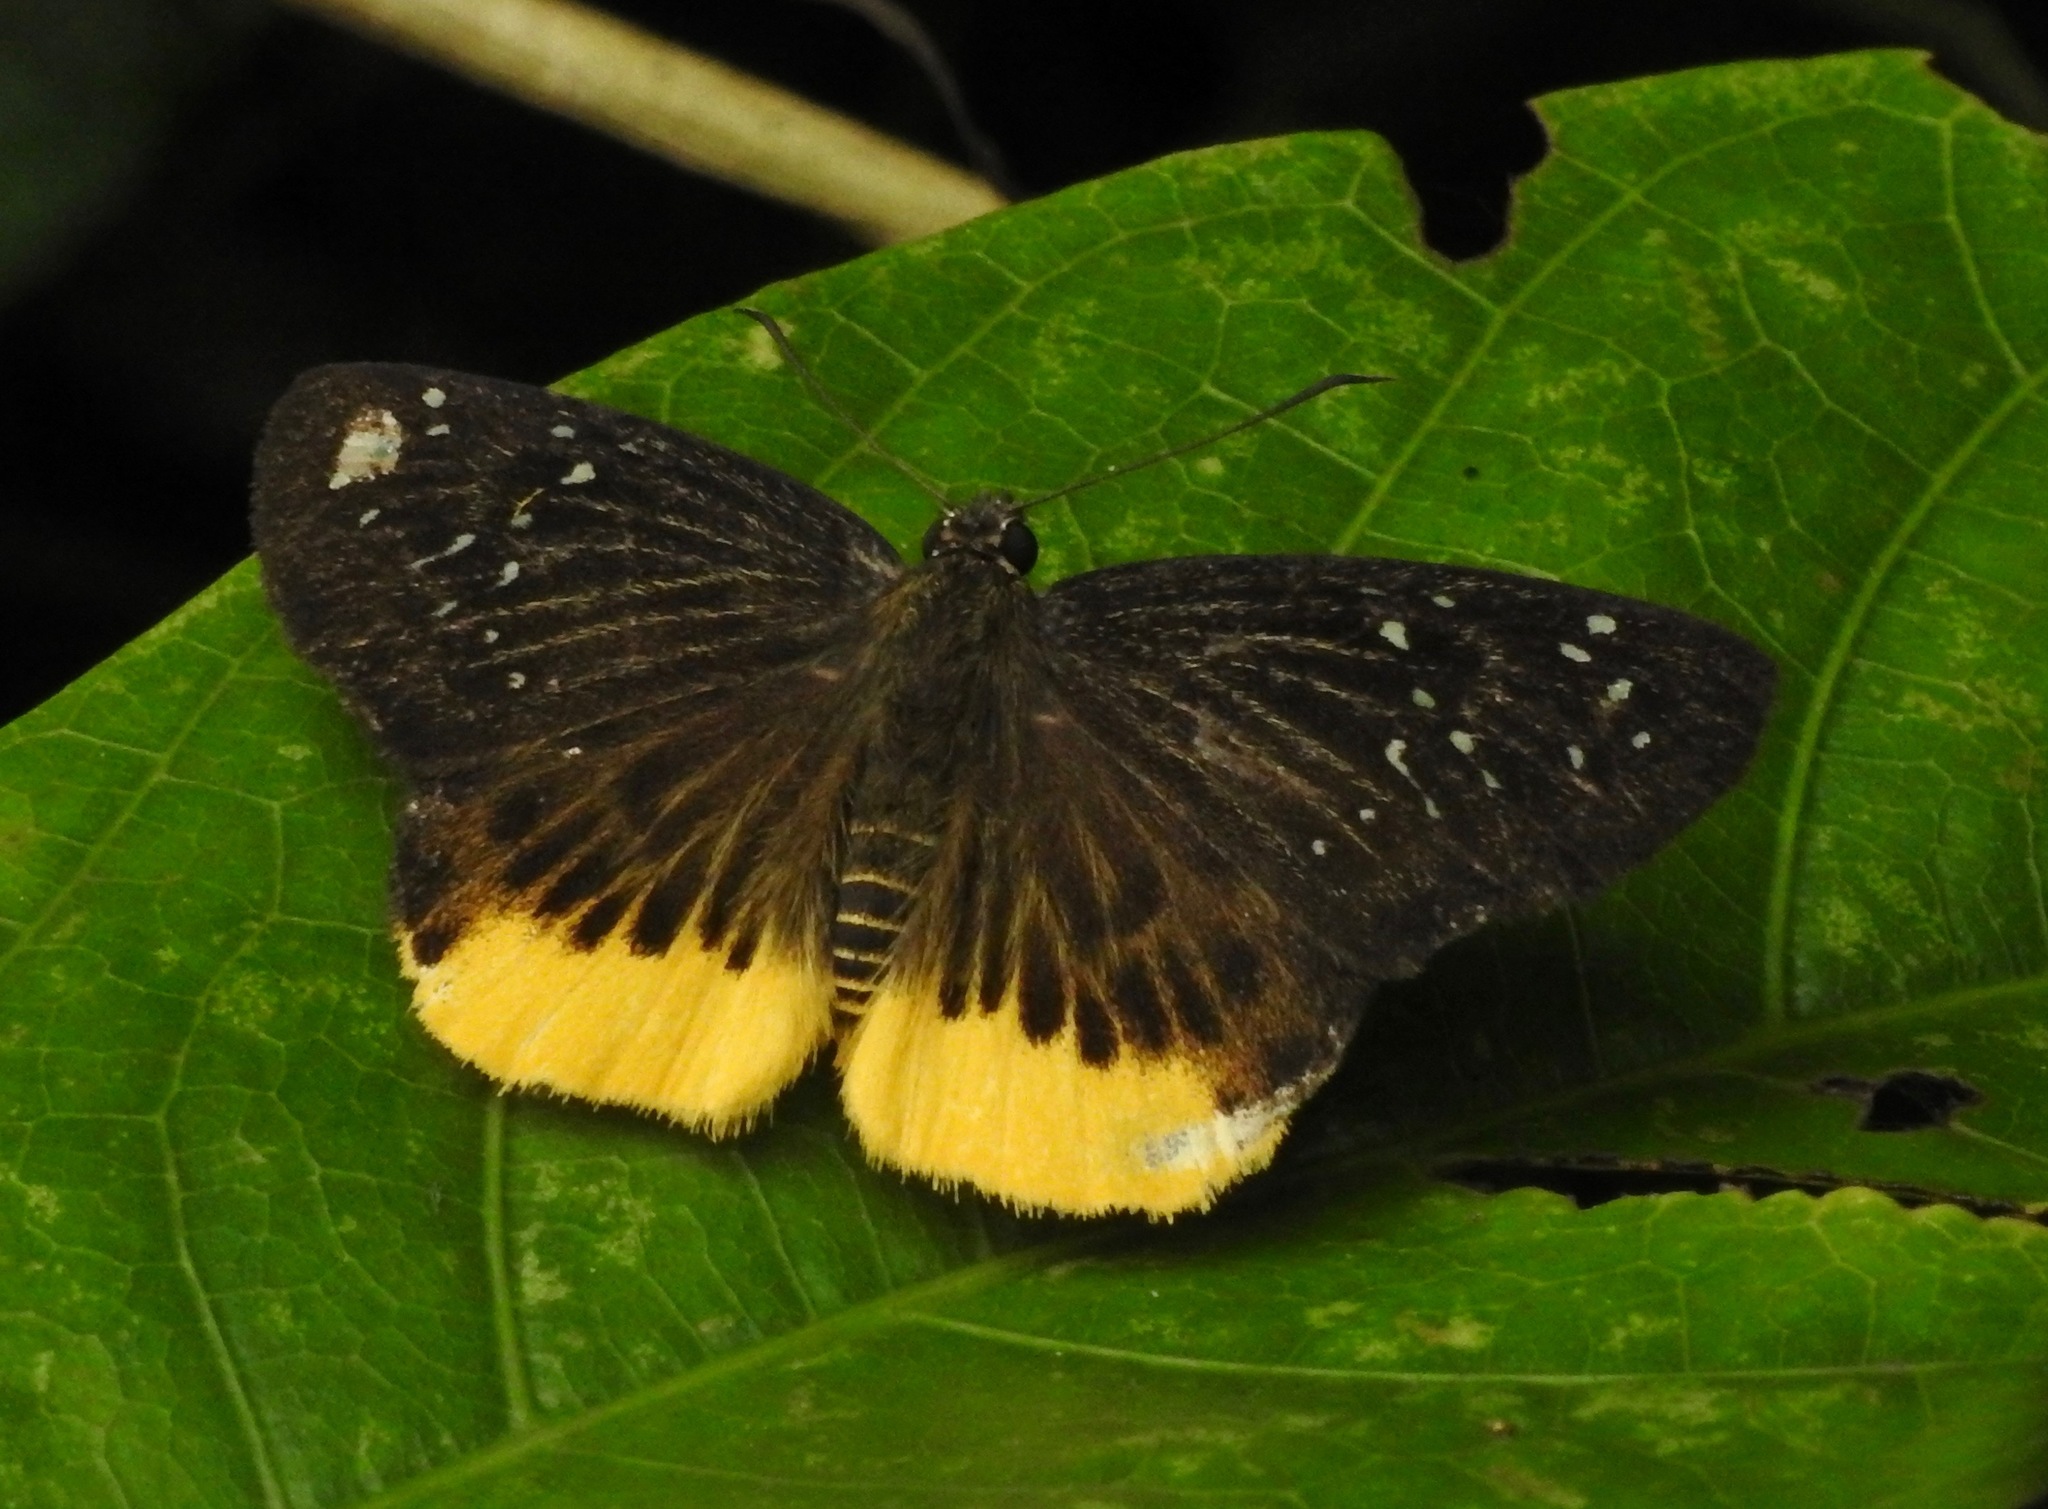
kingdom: Animalia
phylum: Arthropoda
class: Insecta
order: Lepidoptera
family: Hesperiidae
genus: Mooreana
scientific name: Mooreana trichoneura
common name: Yellow flat
